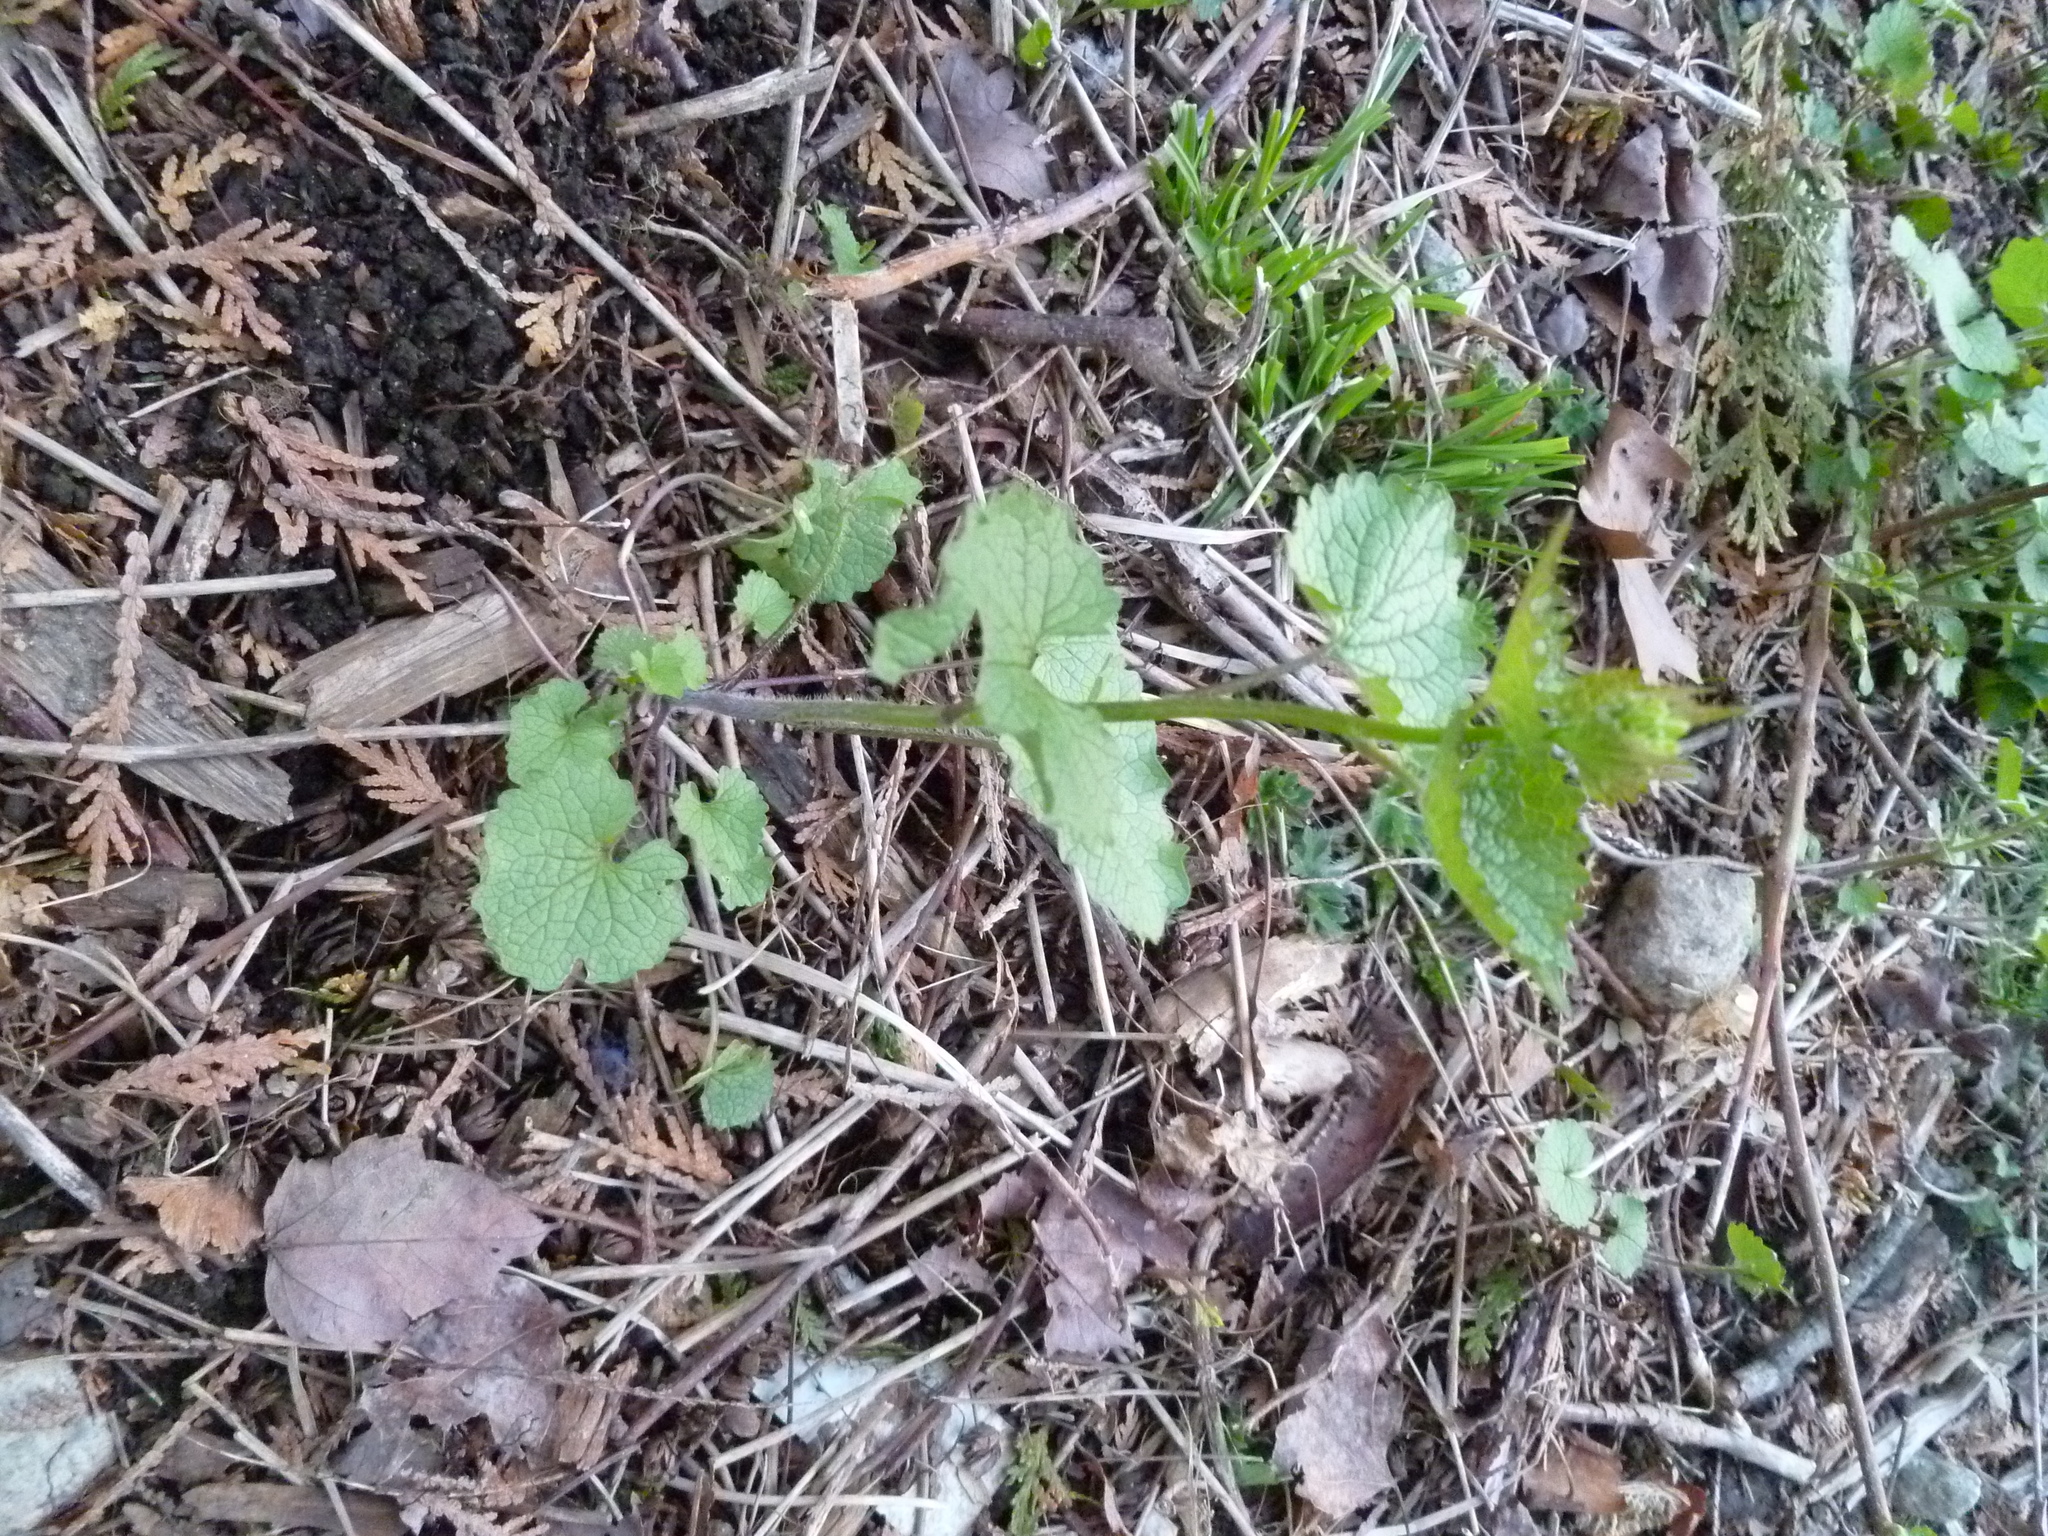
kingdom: Plantae
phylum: Tracheophyta
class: Magnoliopsida
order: Brassicales
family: Brassicaceae
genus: Alliaria
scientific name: Alliaria petiolata
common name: Garlic mustard
